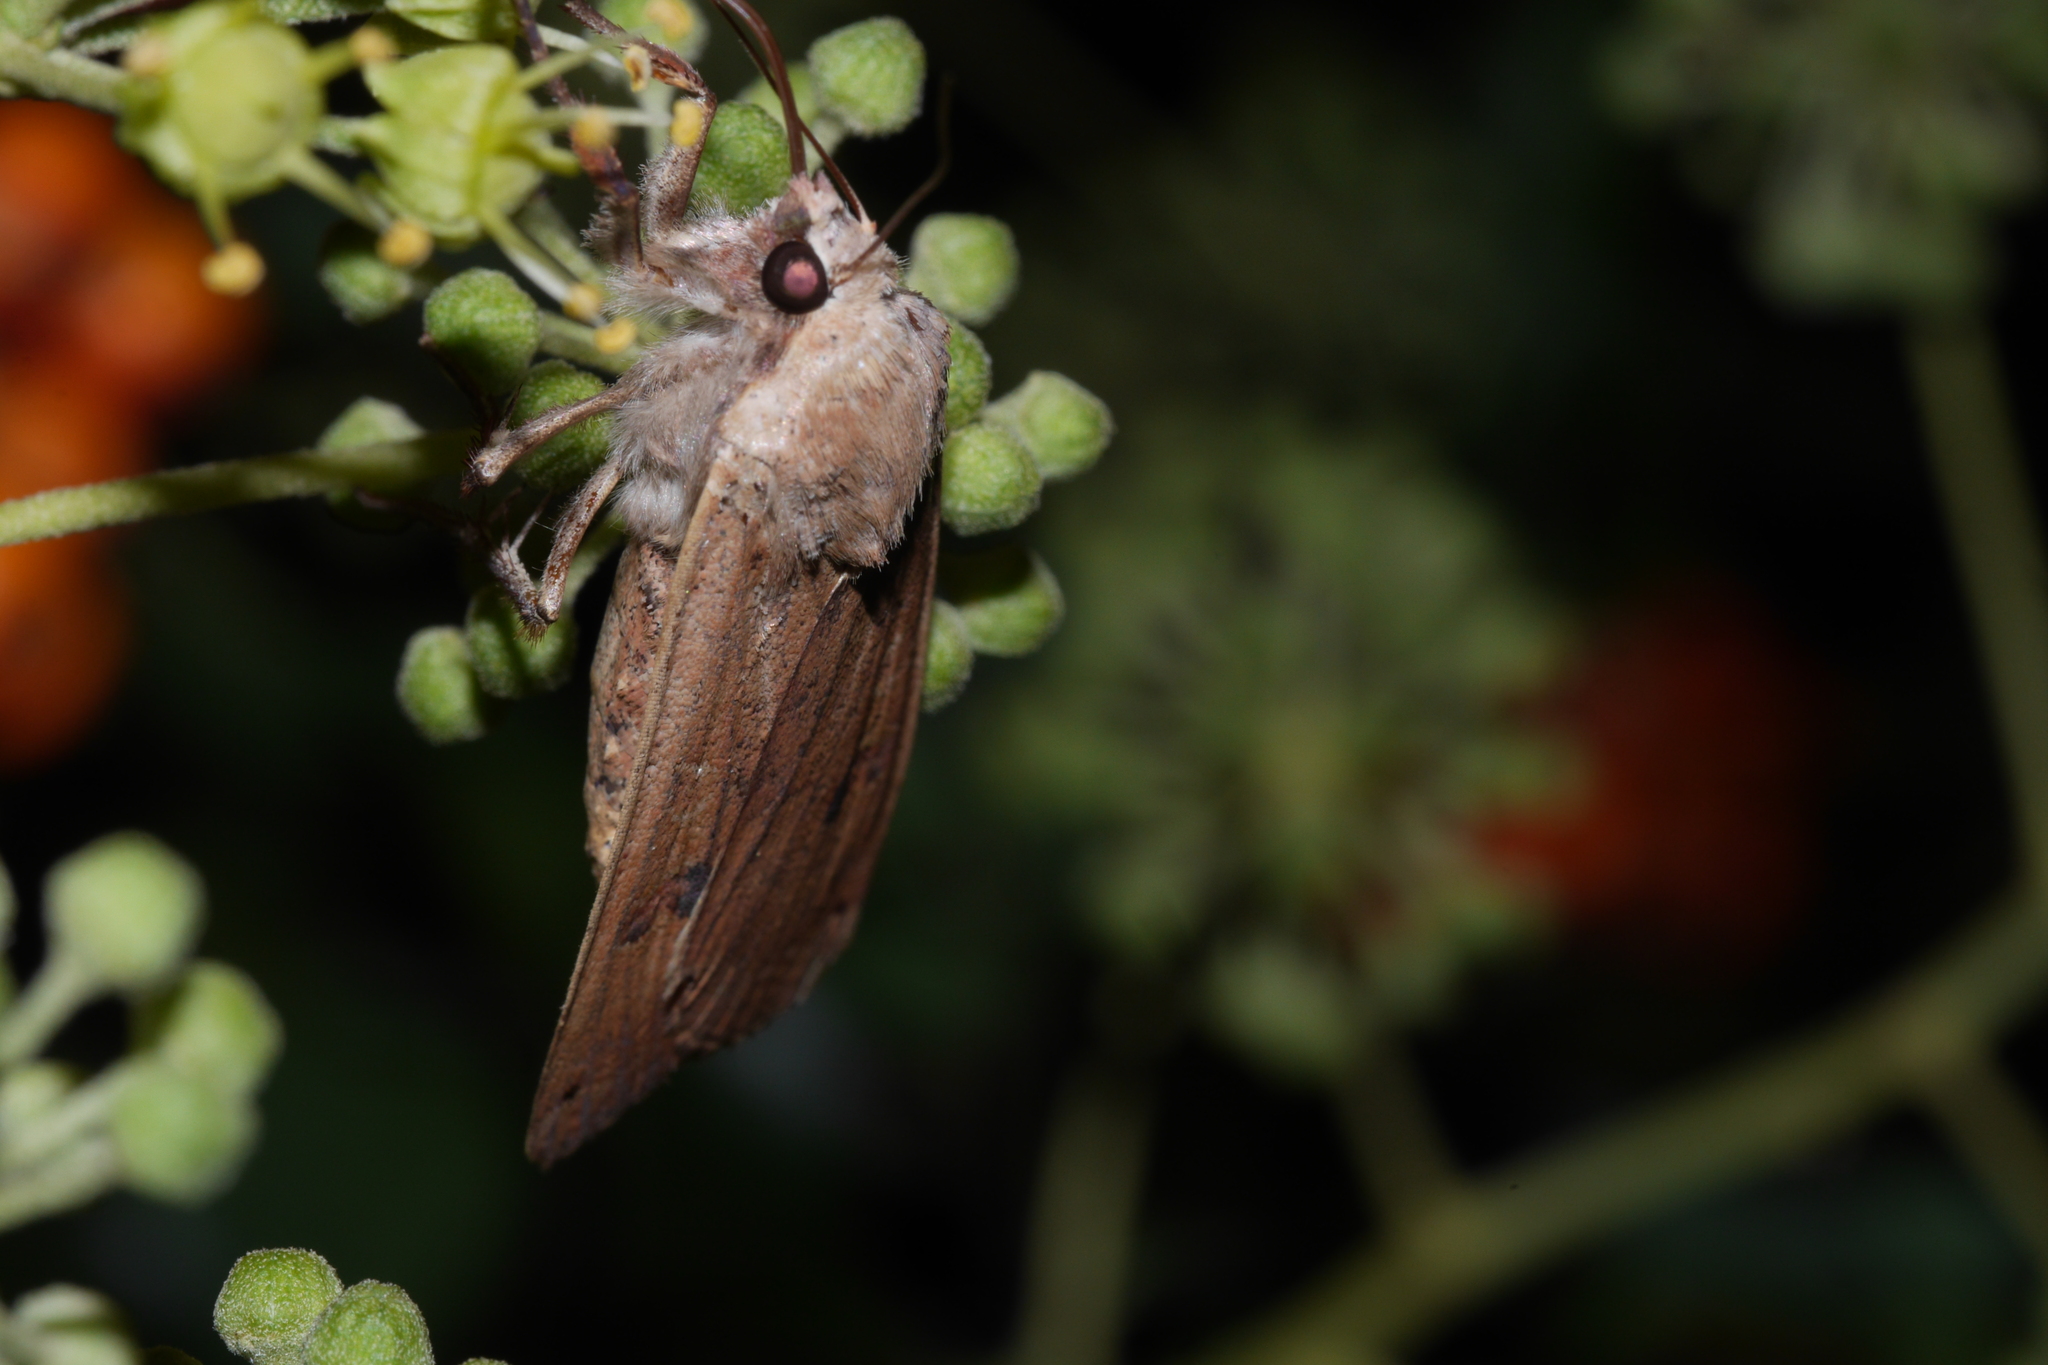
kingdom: Animalia
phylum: Arthropoda
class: Insecta
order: Lepidoptera
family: Noctuidae
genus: Noctua
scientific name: Noctua pronuba
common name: Large yellow underwing
